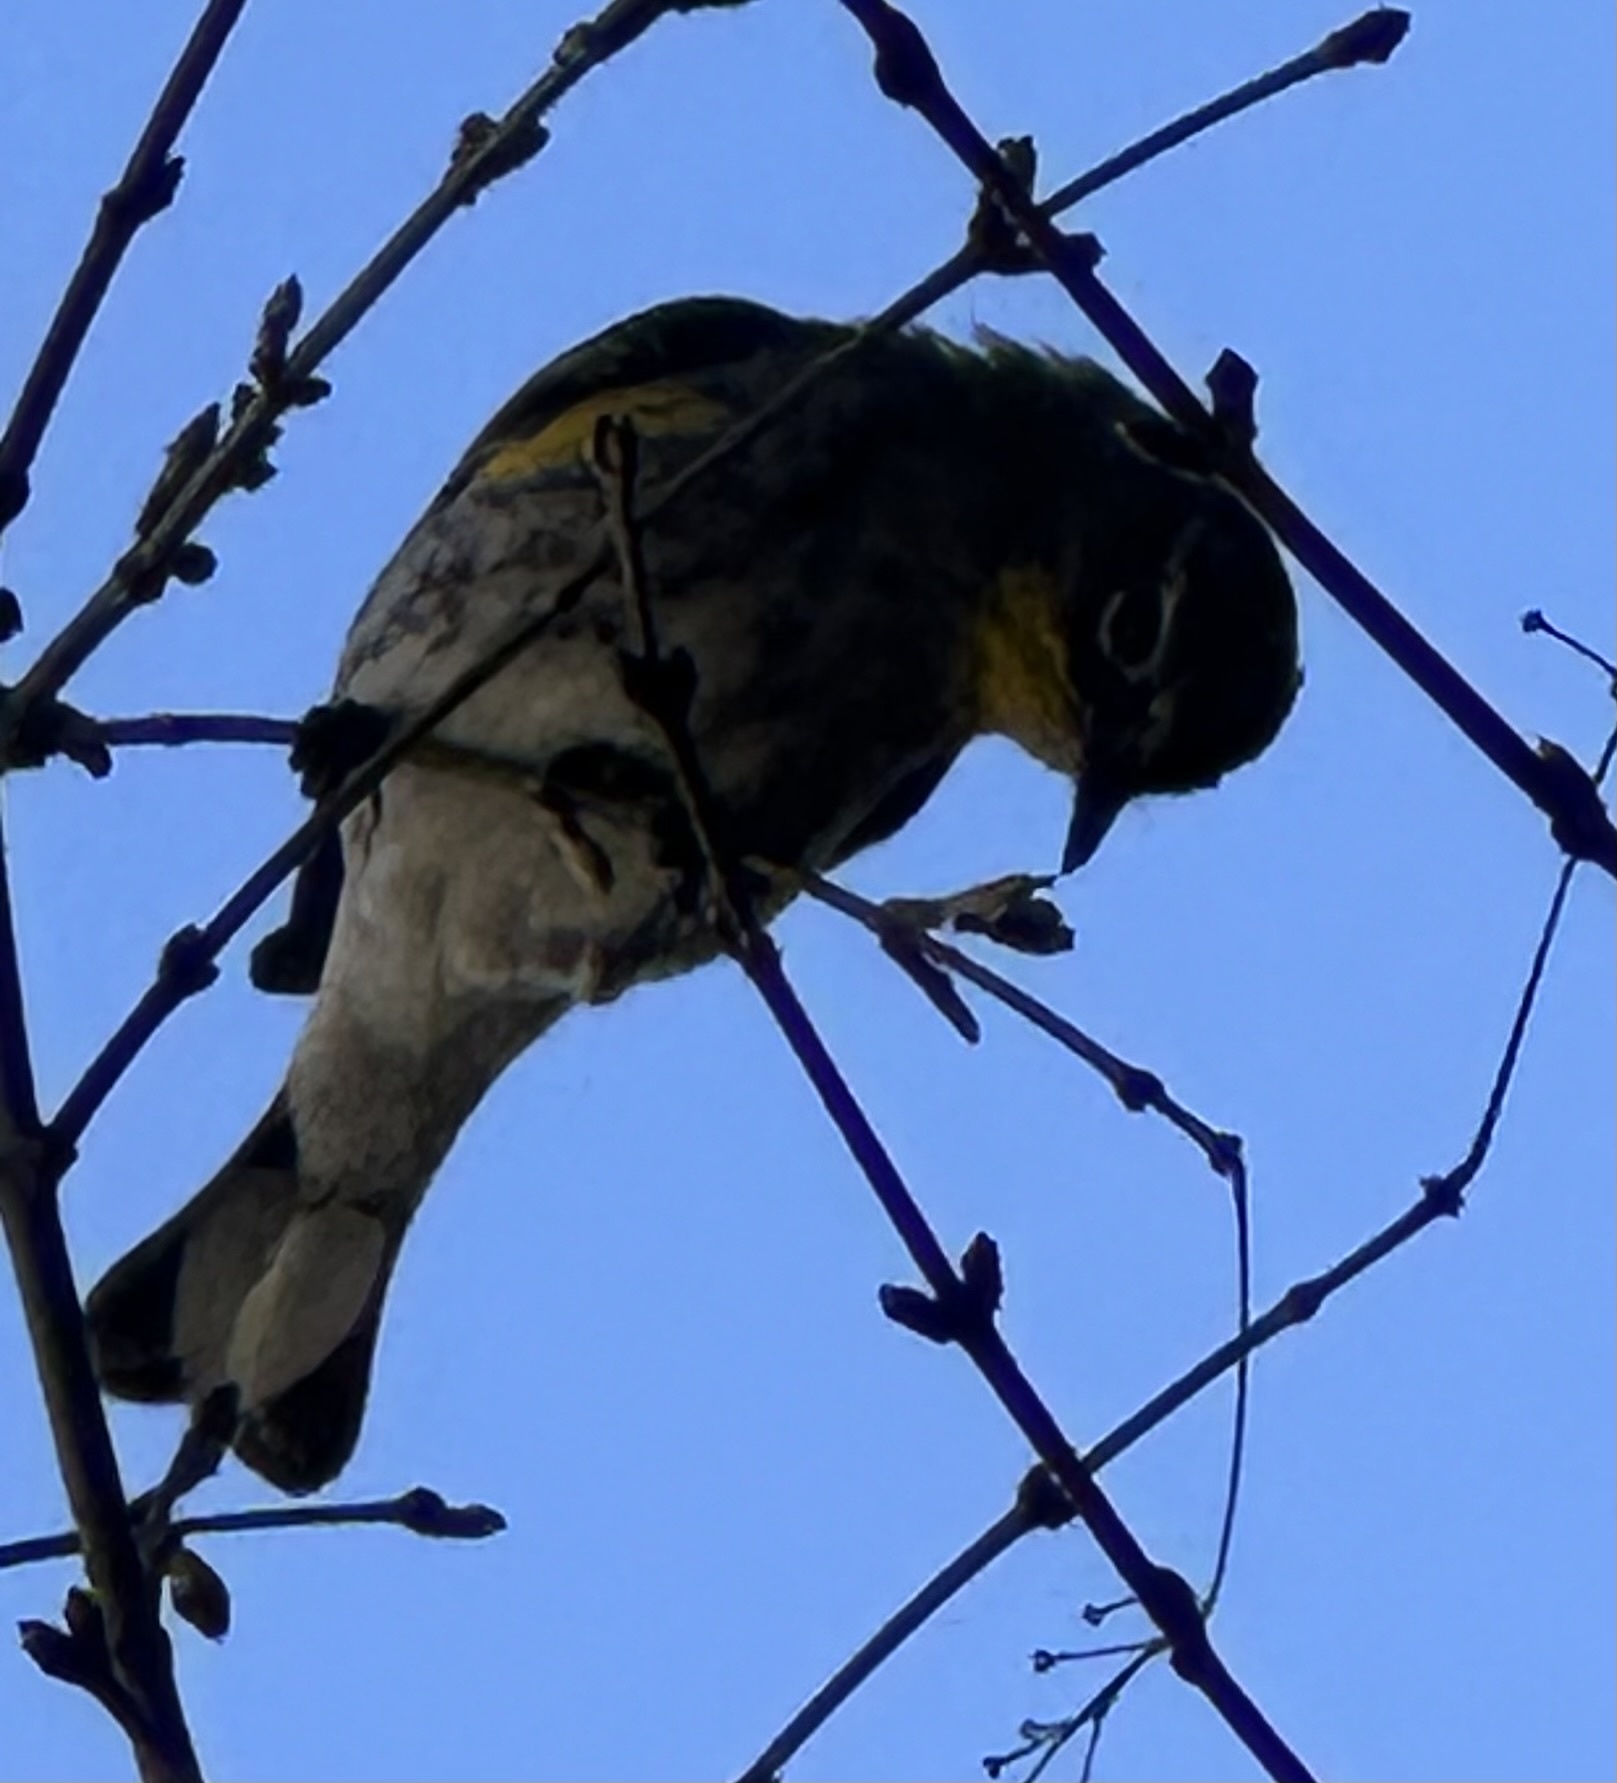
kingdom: Animalia
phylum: Chordata
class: Aves
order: Passeriformes
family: Parulidae
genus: Setophaga
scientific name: Setophaga coronata
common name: Myrtle warbler
